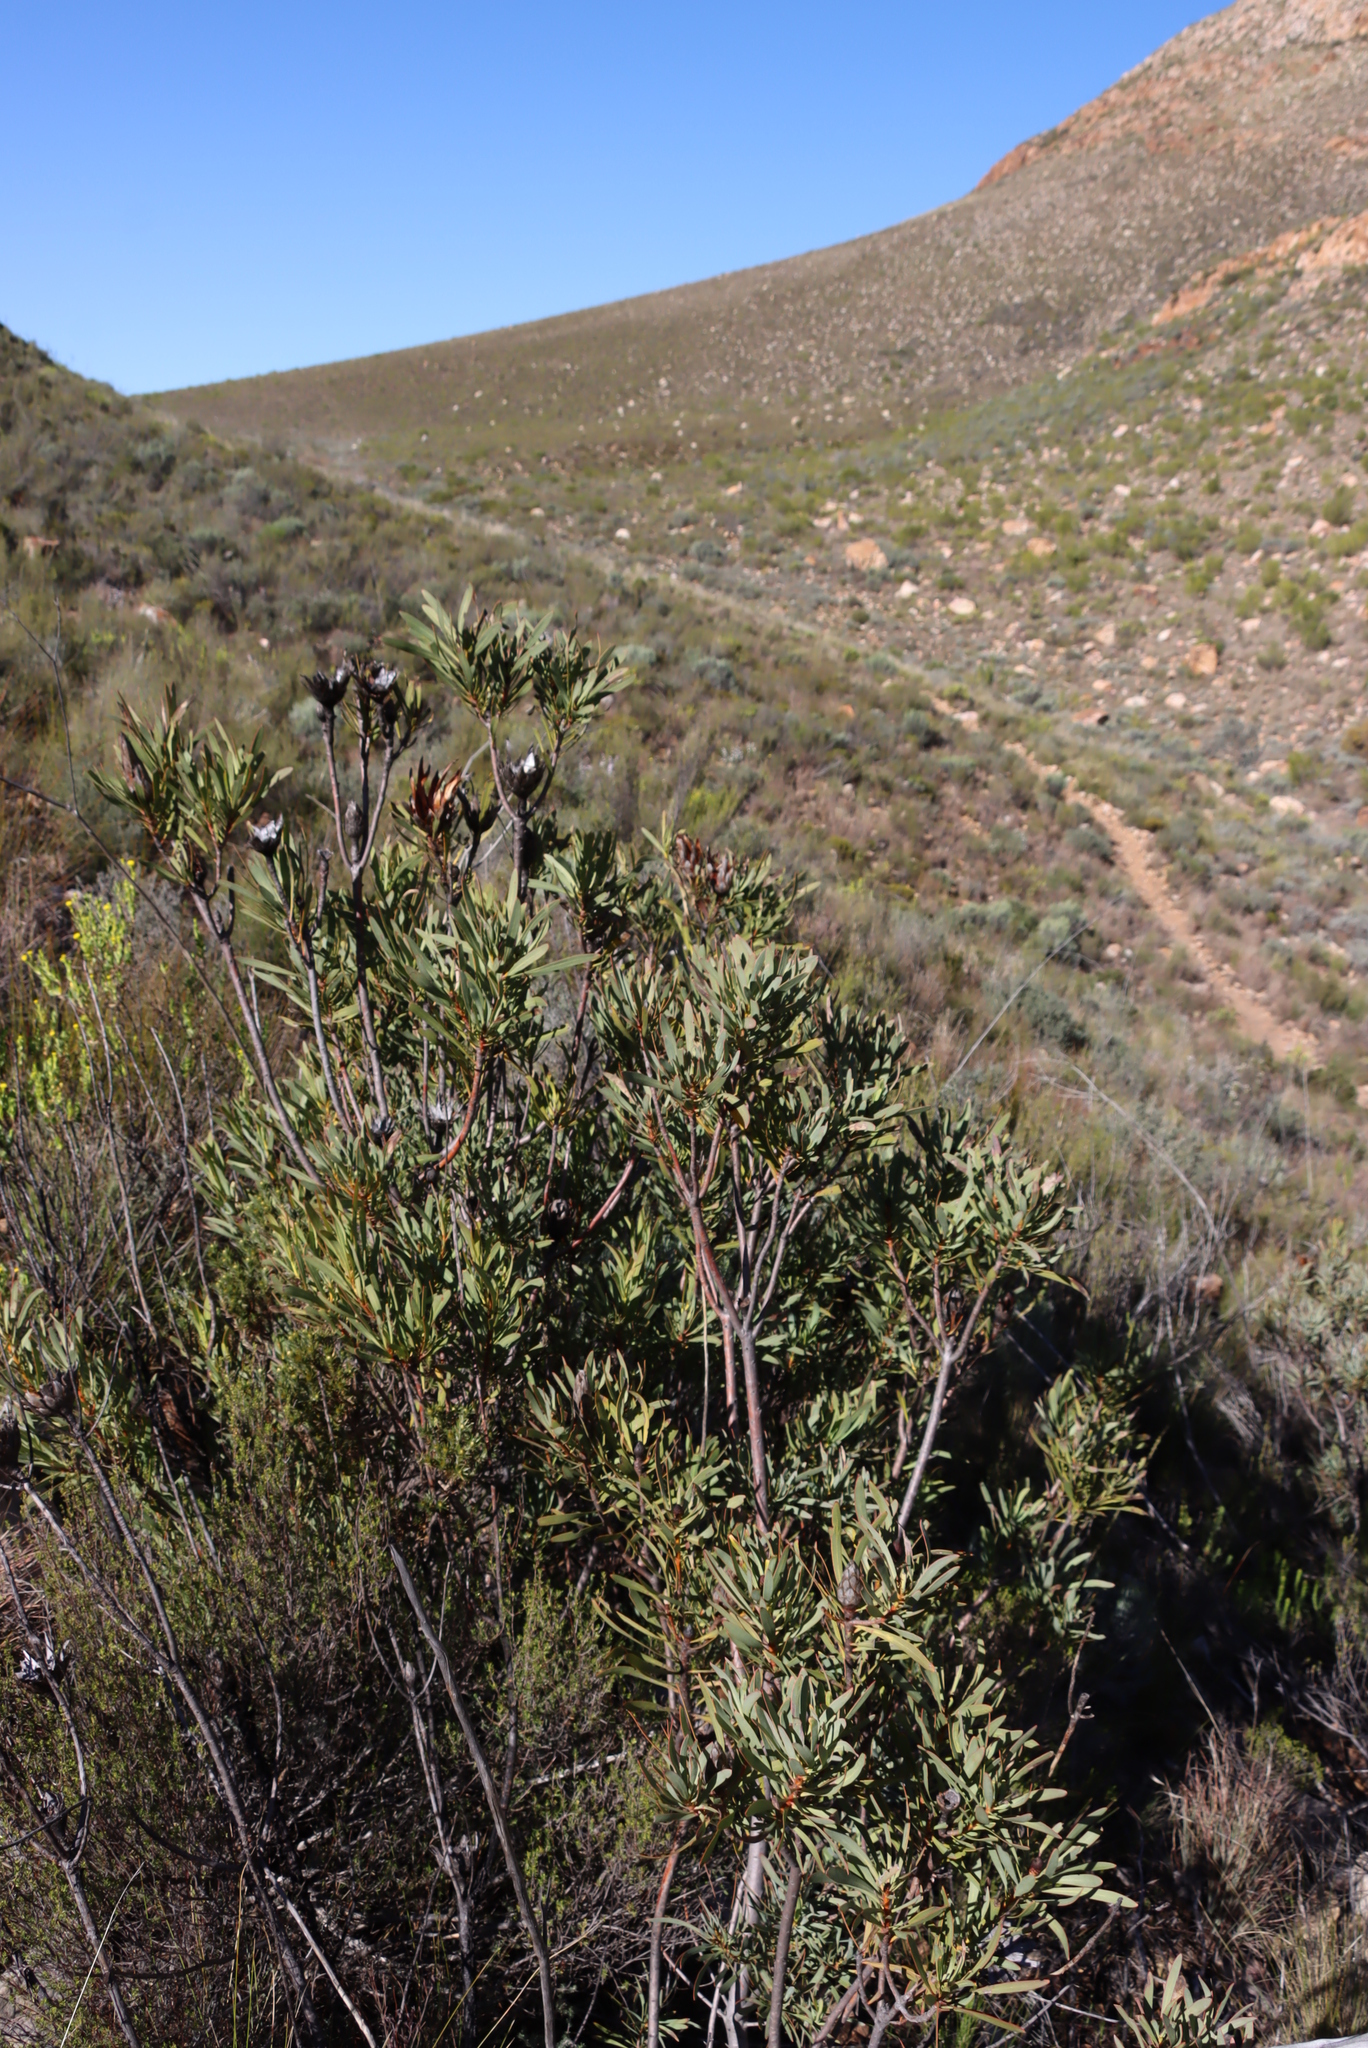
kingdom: Plantae
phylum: Tracheophyta
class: Magnoliopsida
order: Proteales
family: Proteaceae
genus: Protea
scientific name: Protea repens
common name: Sugarbush
